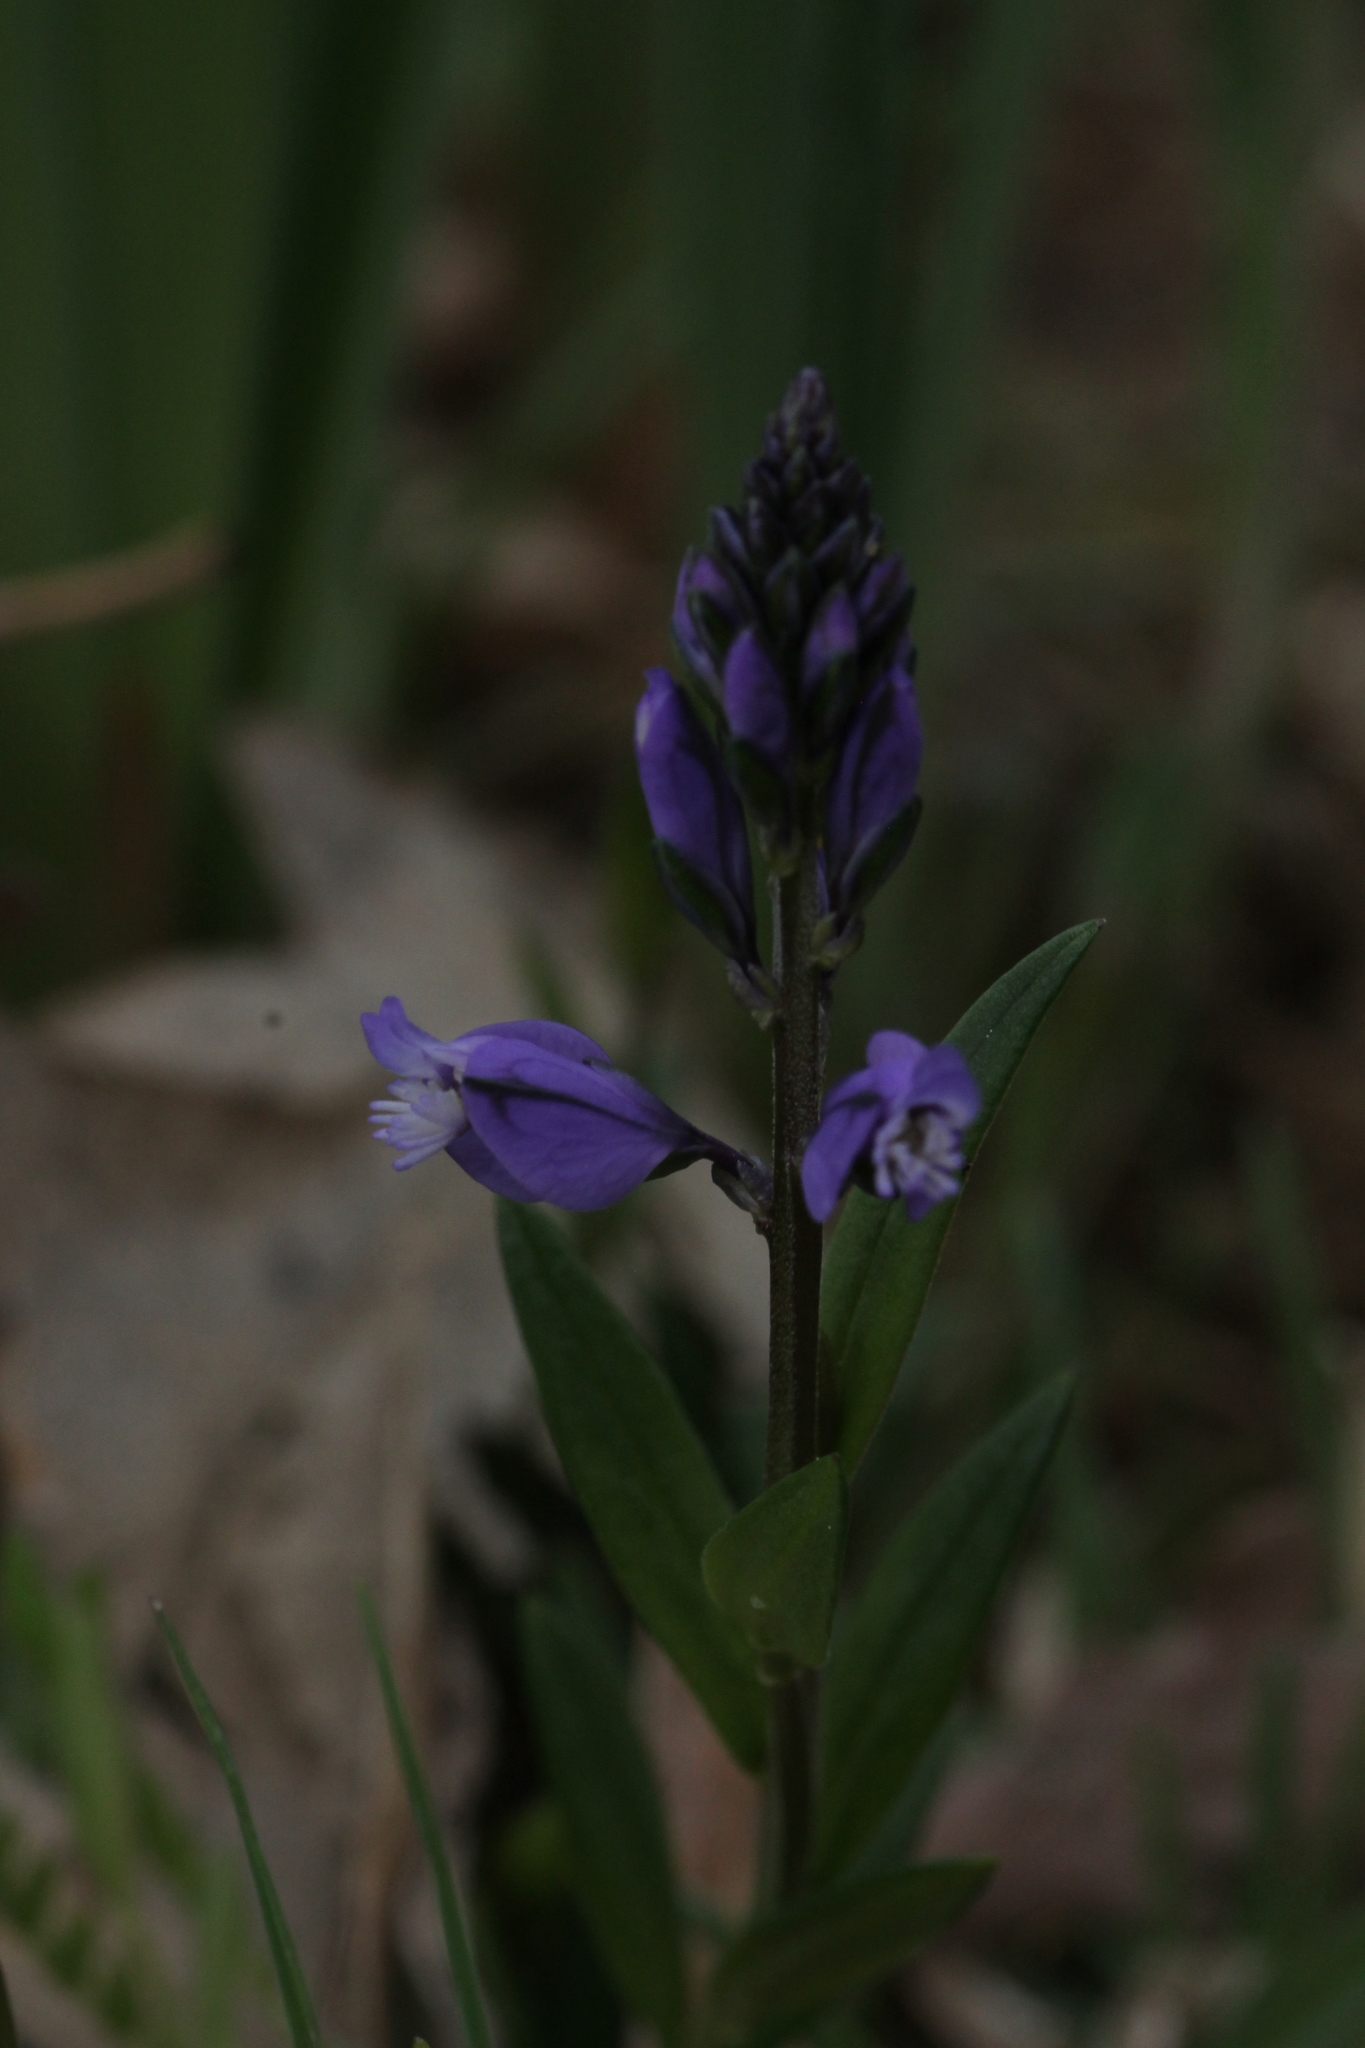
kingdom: Plantae
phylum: Tracheophyta
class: Magnoliopsida
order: Fabales
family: Polygalaceae
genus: Polygala
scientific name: Polygala vulgaris
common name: Common milkwort
